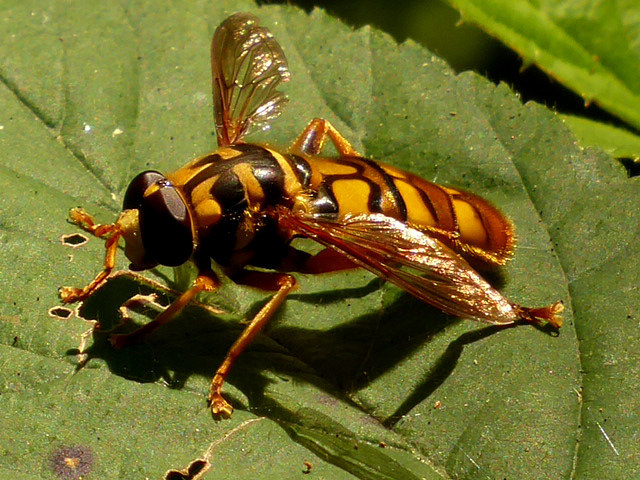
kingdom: Animalia
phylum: Arthropoda
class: Insecta
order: Diptera
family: Syrphidae
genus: Milesia
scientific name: Milesia virginiensis
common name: Virginia giant
